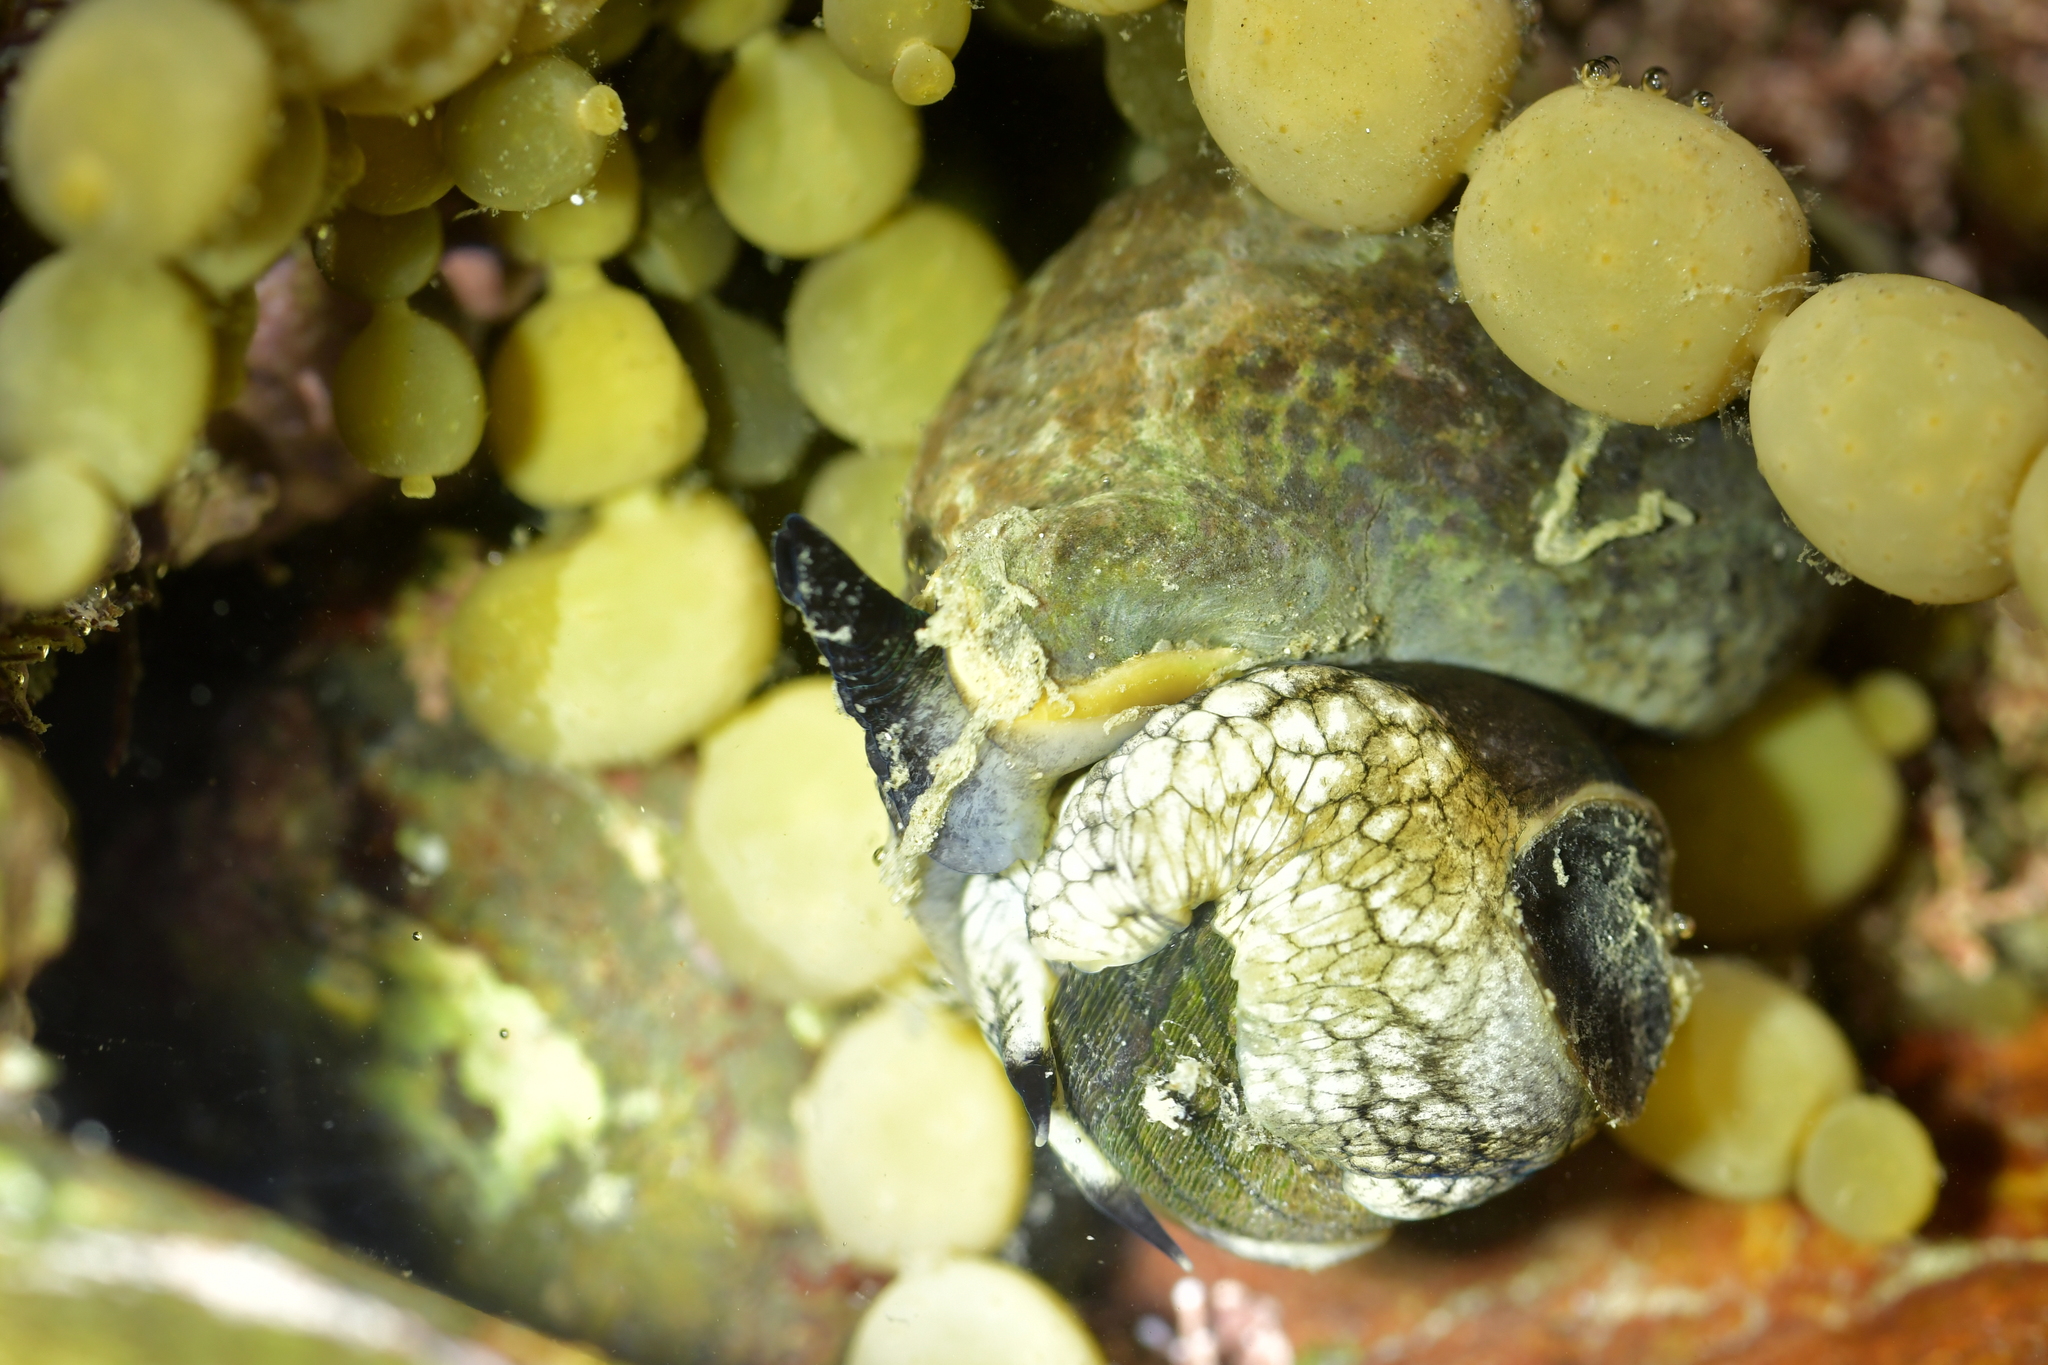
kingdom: Animalia
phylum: Mollusca
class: Gastropoda
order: Neogastropoda
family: Cominellidae
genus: Cominella
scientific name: Cominella maculosa
